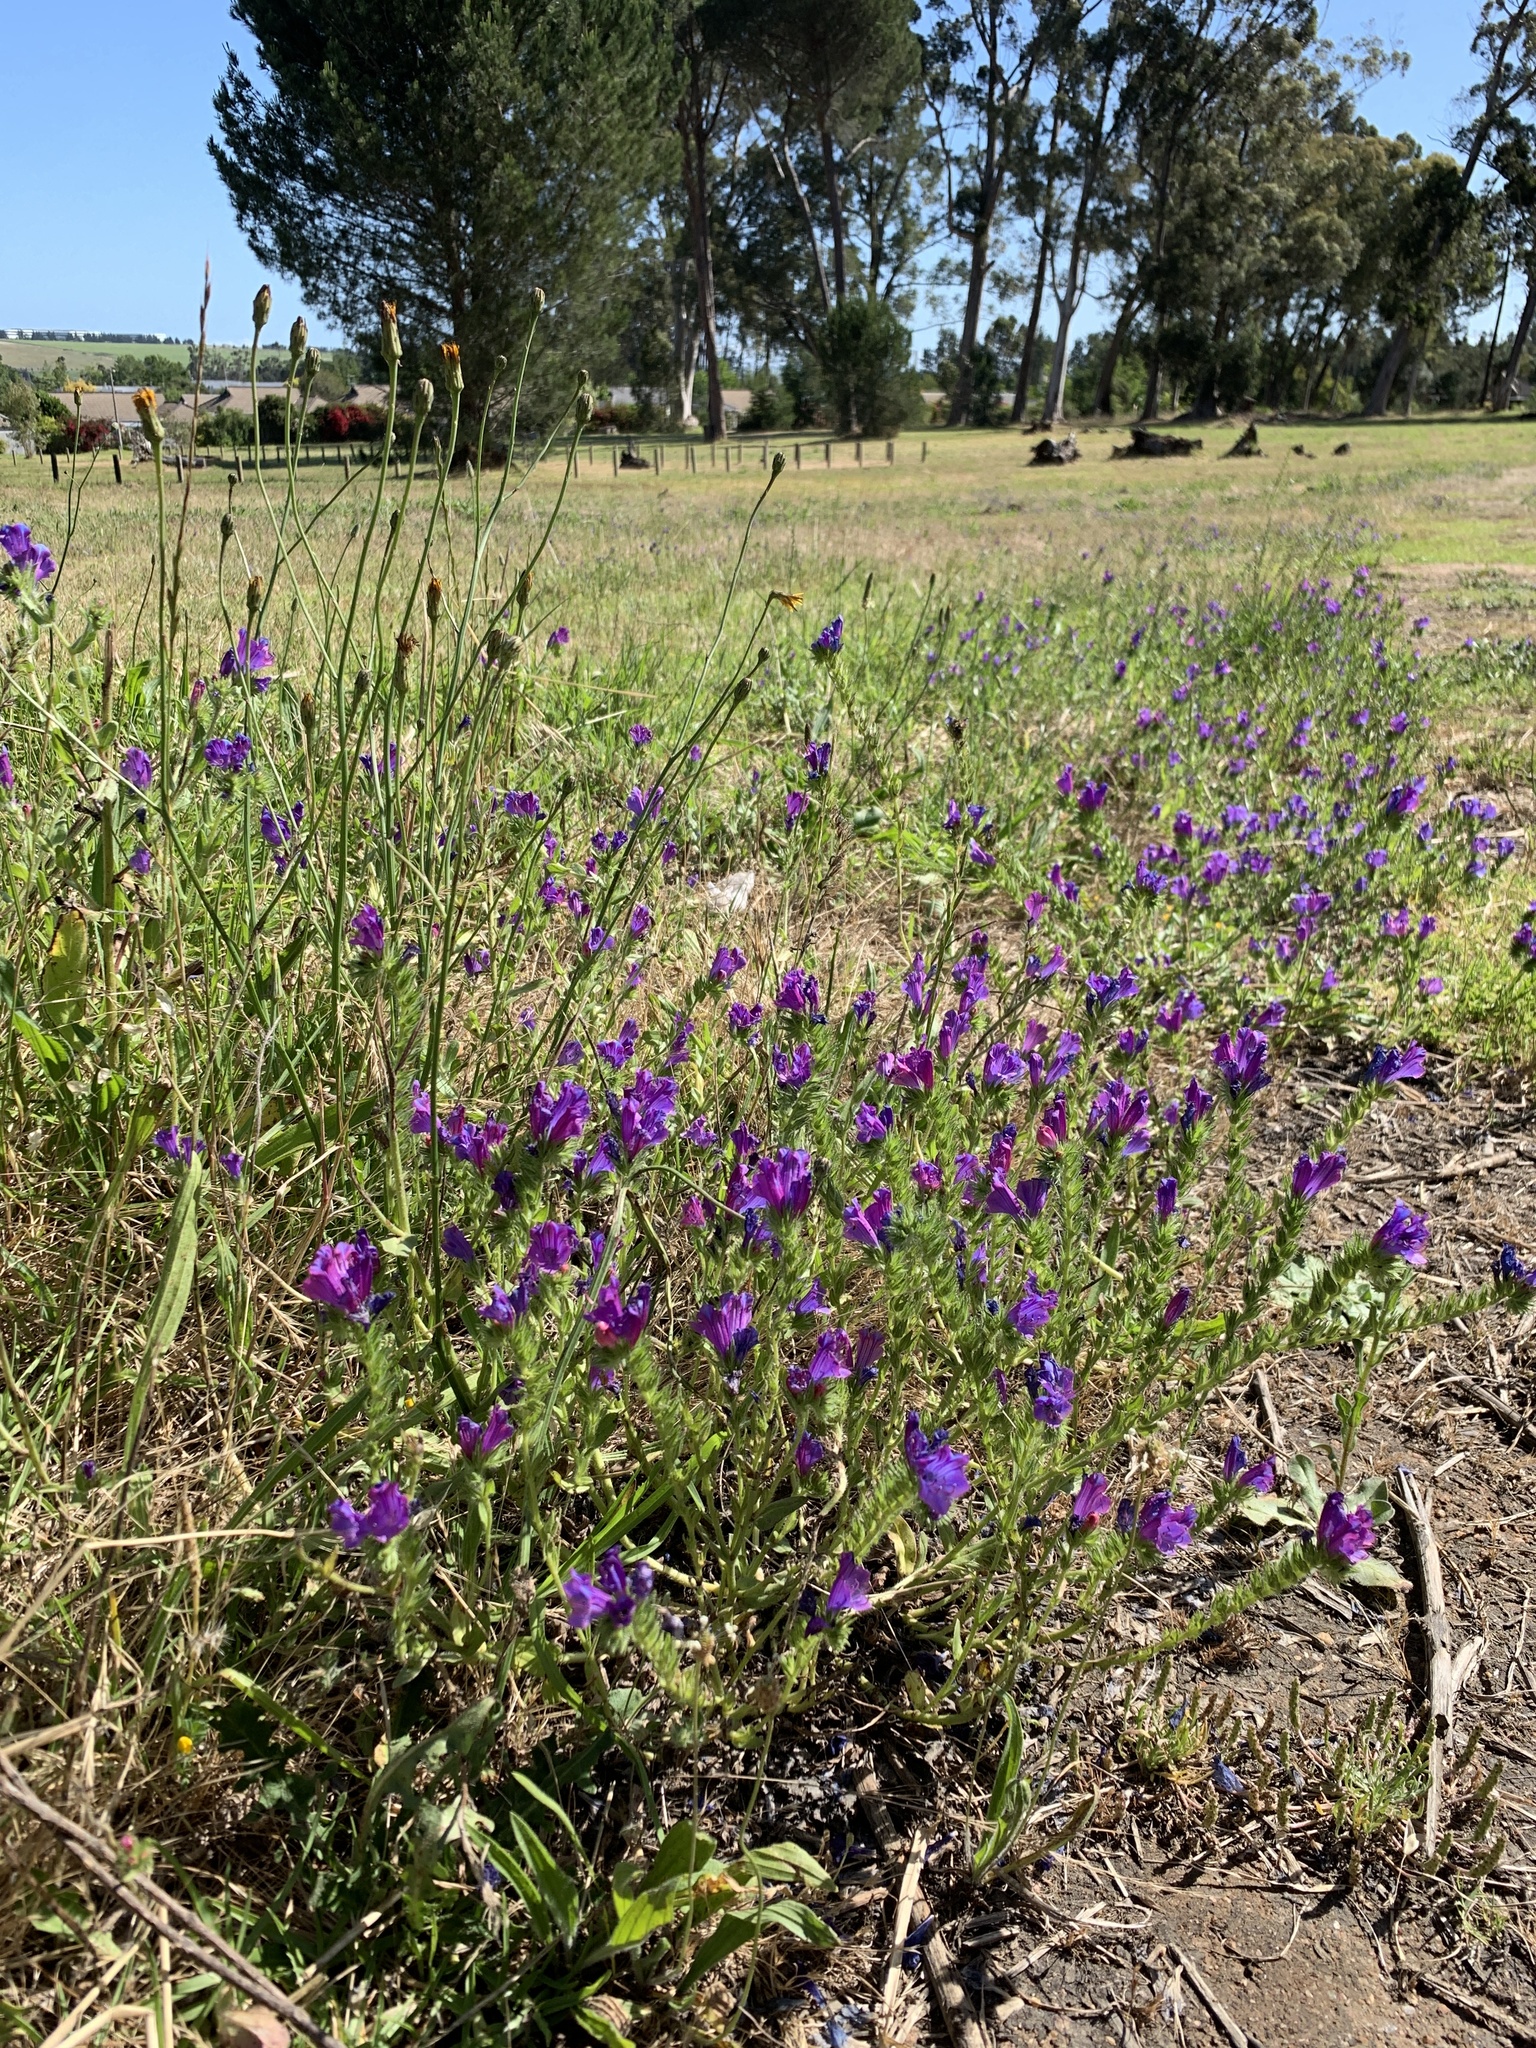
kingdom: Plantae
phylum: Tracheophyta
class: Magnoliopsida
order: Boraginales
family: Boraginaceae
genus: Echium
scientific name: Echium plantagineum
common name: Purple viper's-bugloss
